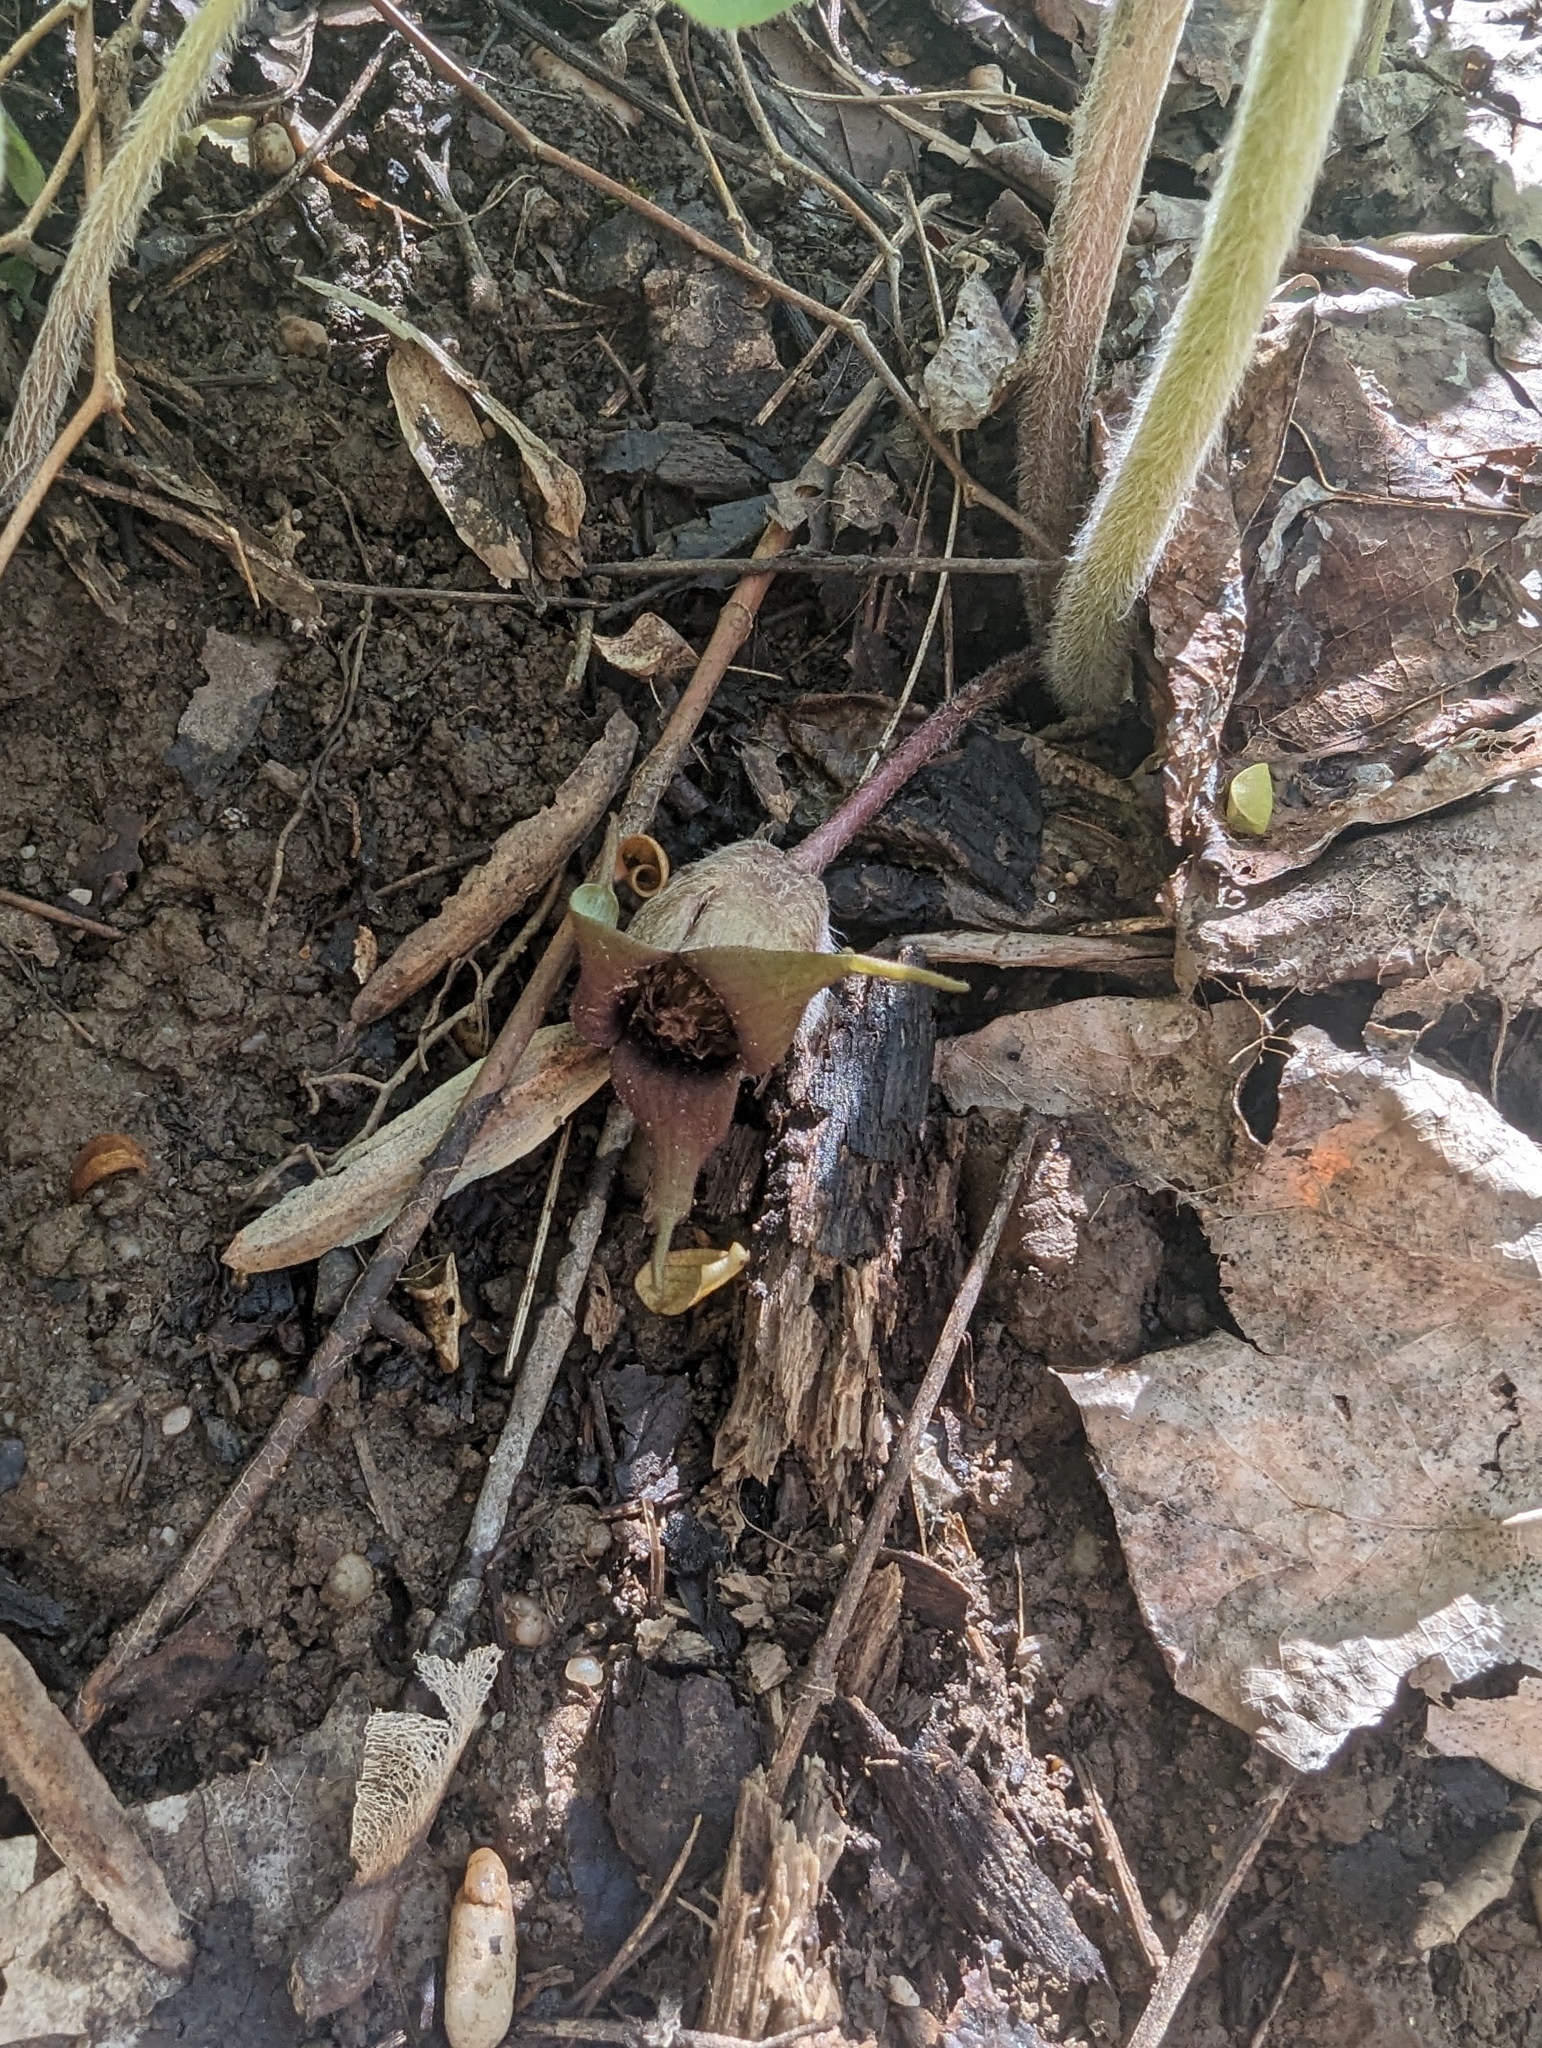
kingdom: Plantae
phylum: Tracheophyta
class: Magnoliopsida
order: Piperales
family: Aristolochiaceae
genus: Asarum
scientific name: Asarum canadense
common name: Wild ginger
